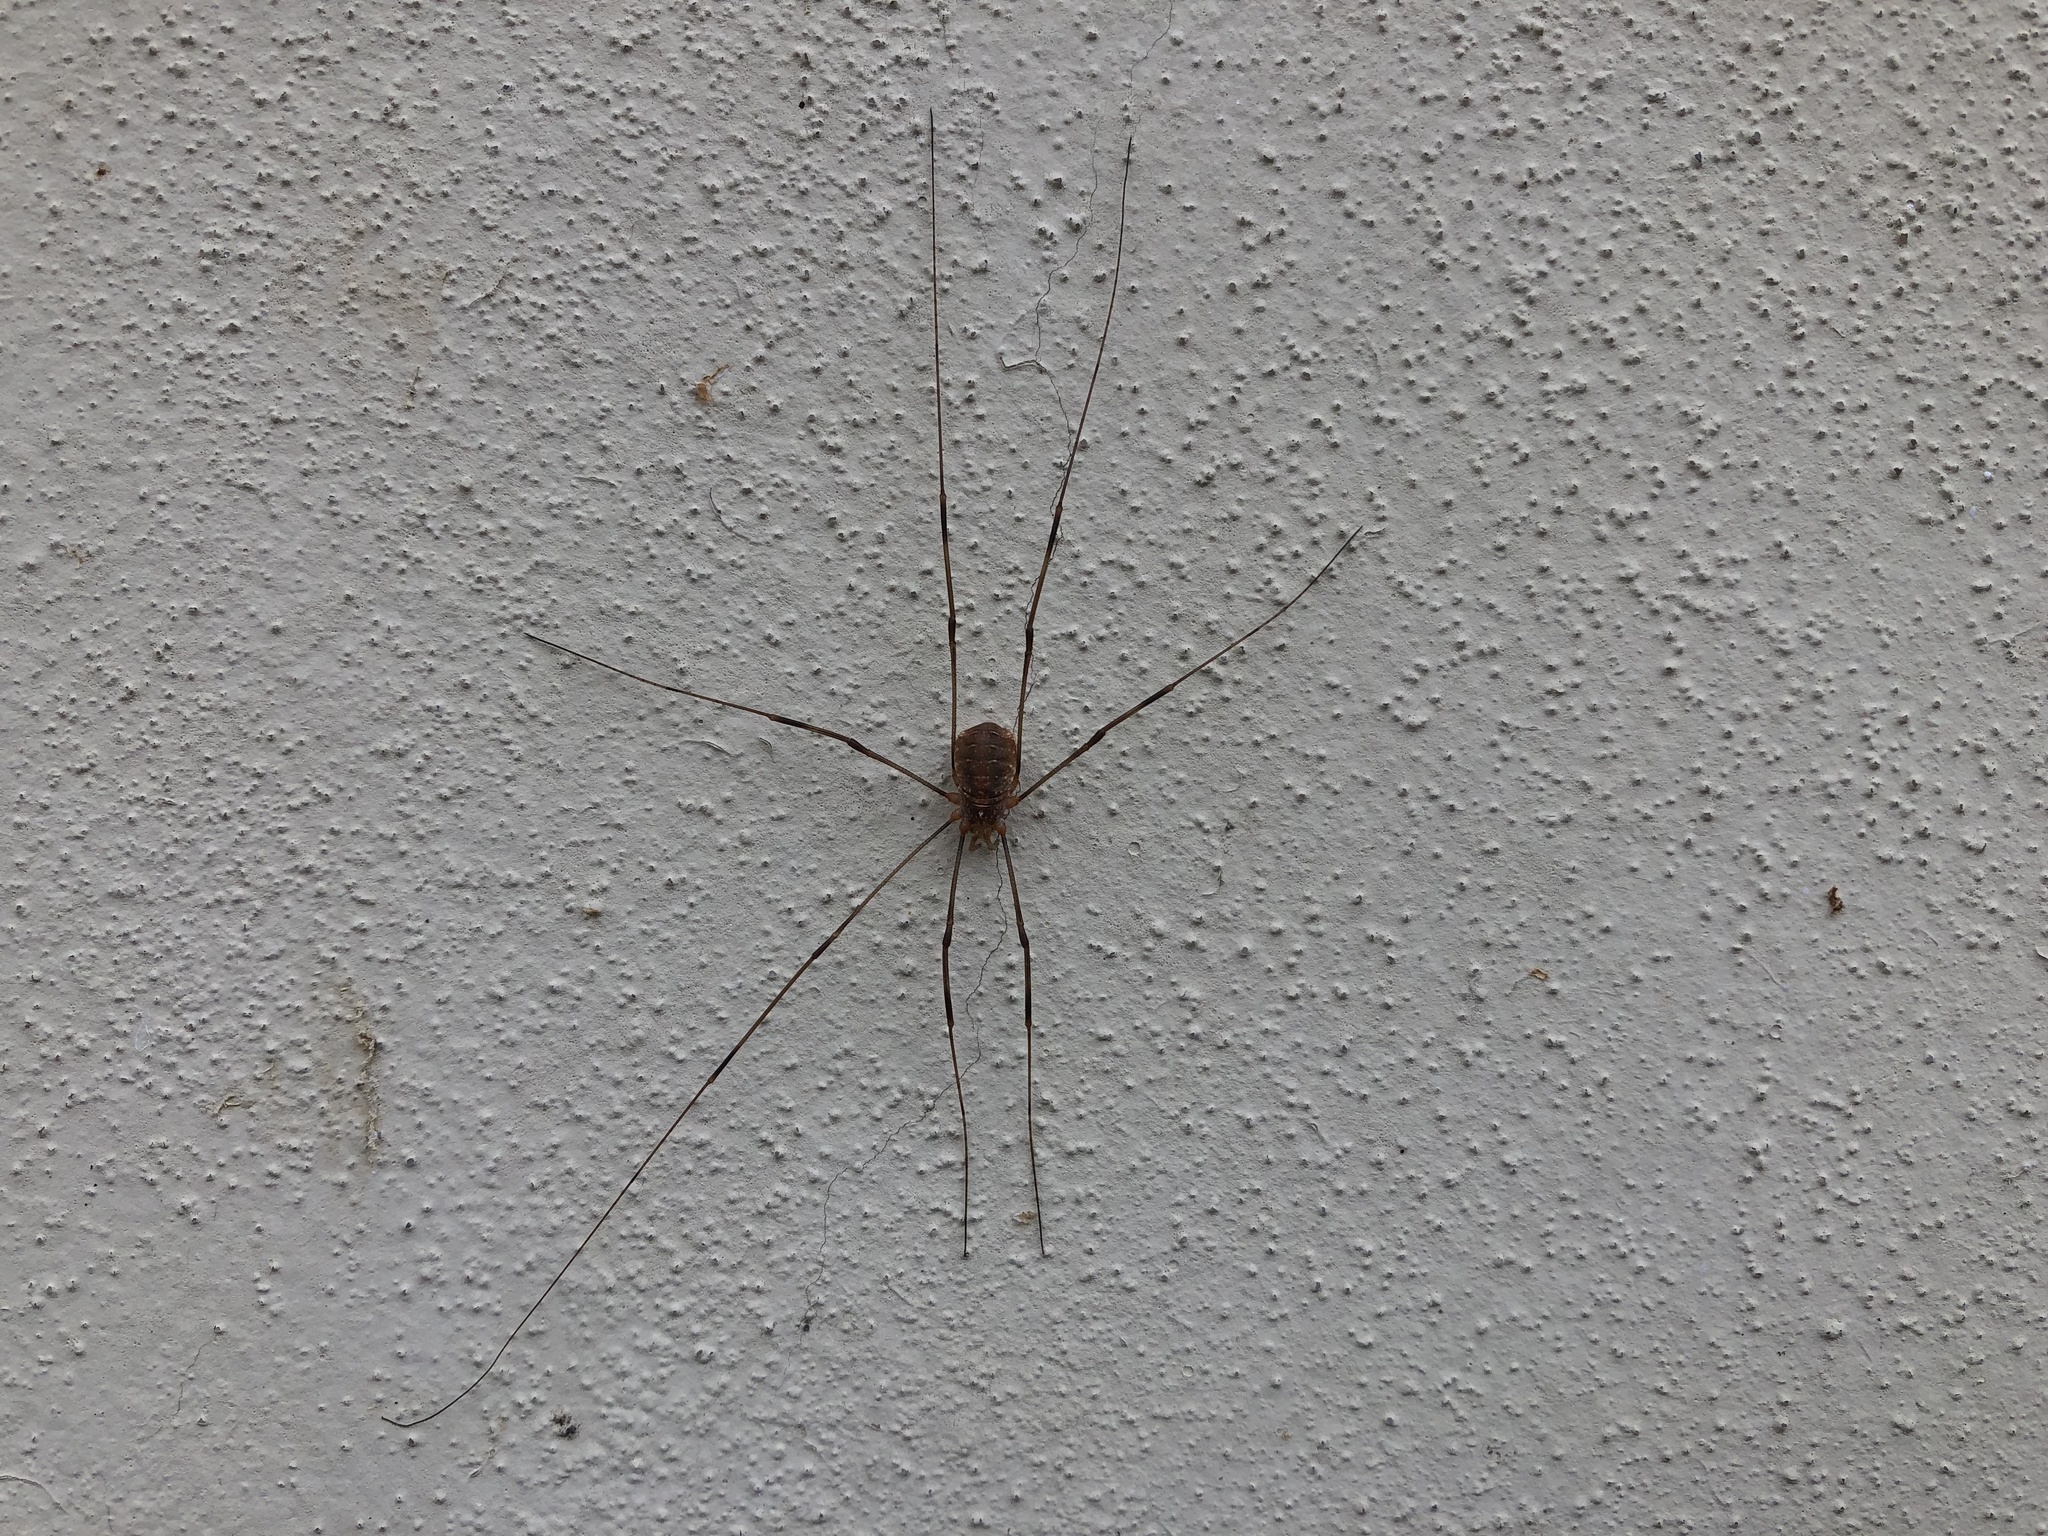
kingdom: Animalia
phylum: Arthropoda
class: Arachnida
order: Opiliones
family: Phalangiidae
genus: Opilio
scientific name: Opilio canestrinii
